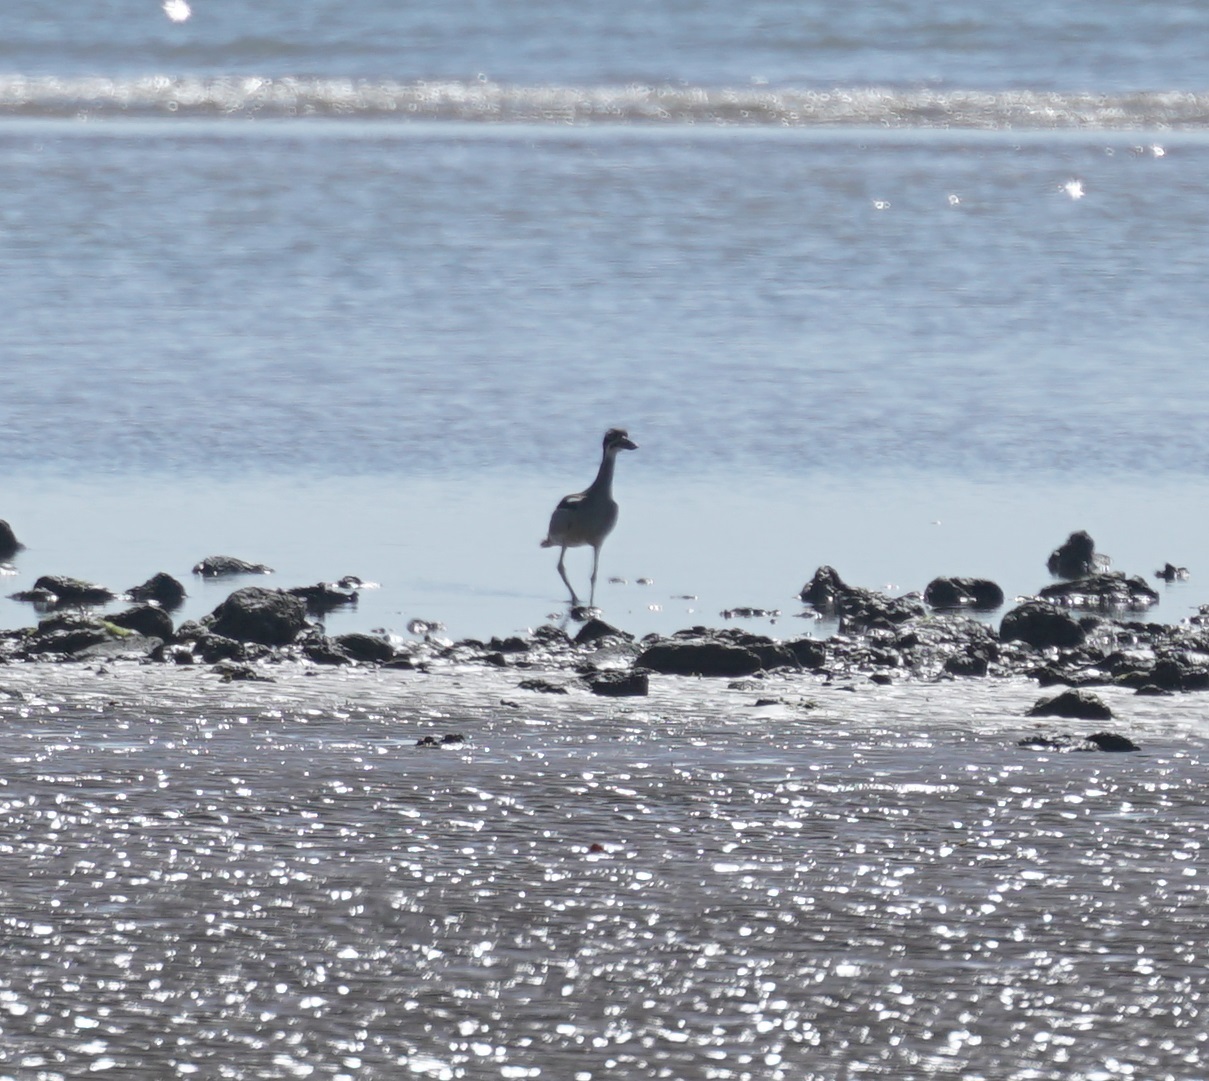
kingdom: Animalia
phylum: Chordata
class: Aves
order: Charadriiformes
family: Burhinidae
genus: Esacus
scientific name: Esacus magnirostris
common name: Beach stone-curlew
